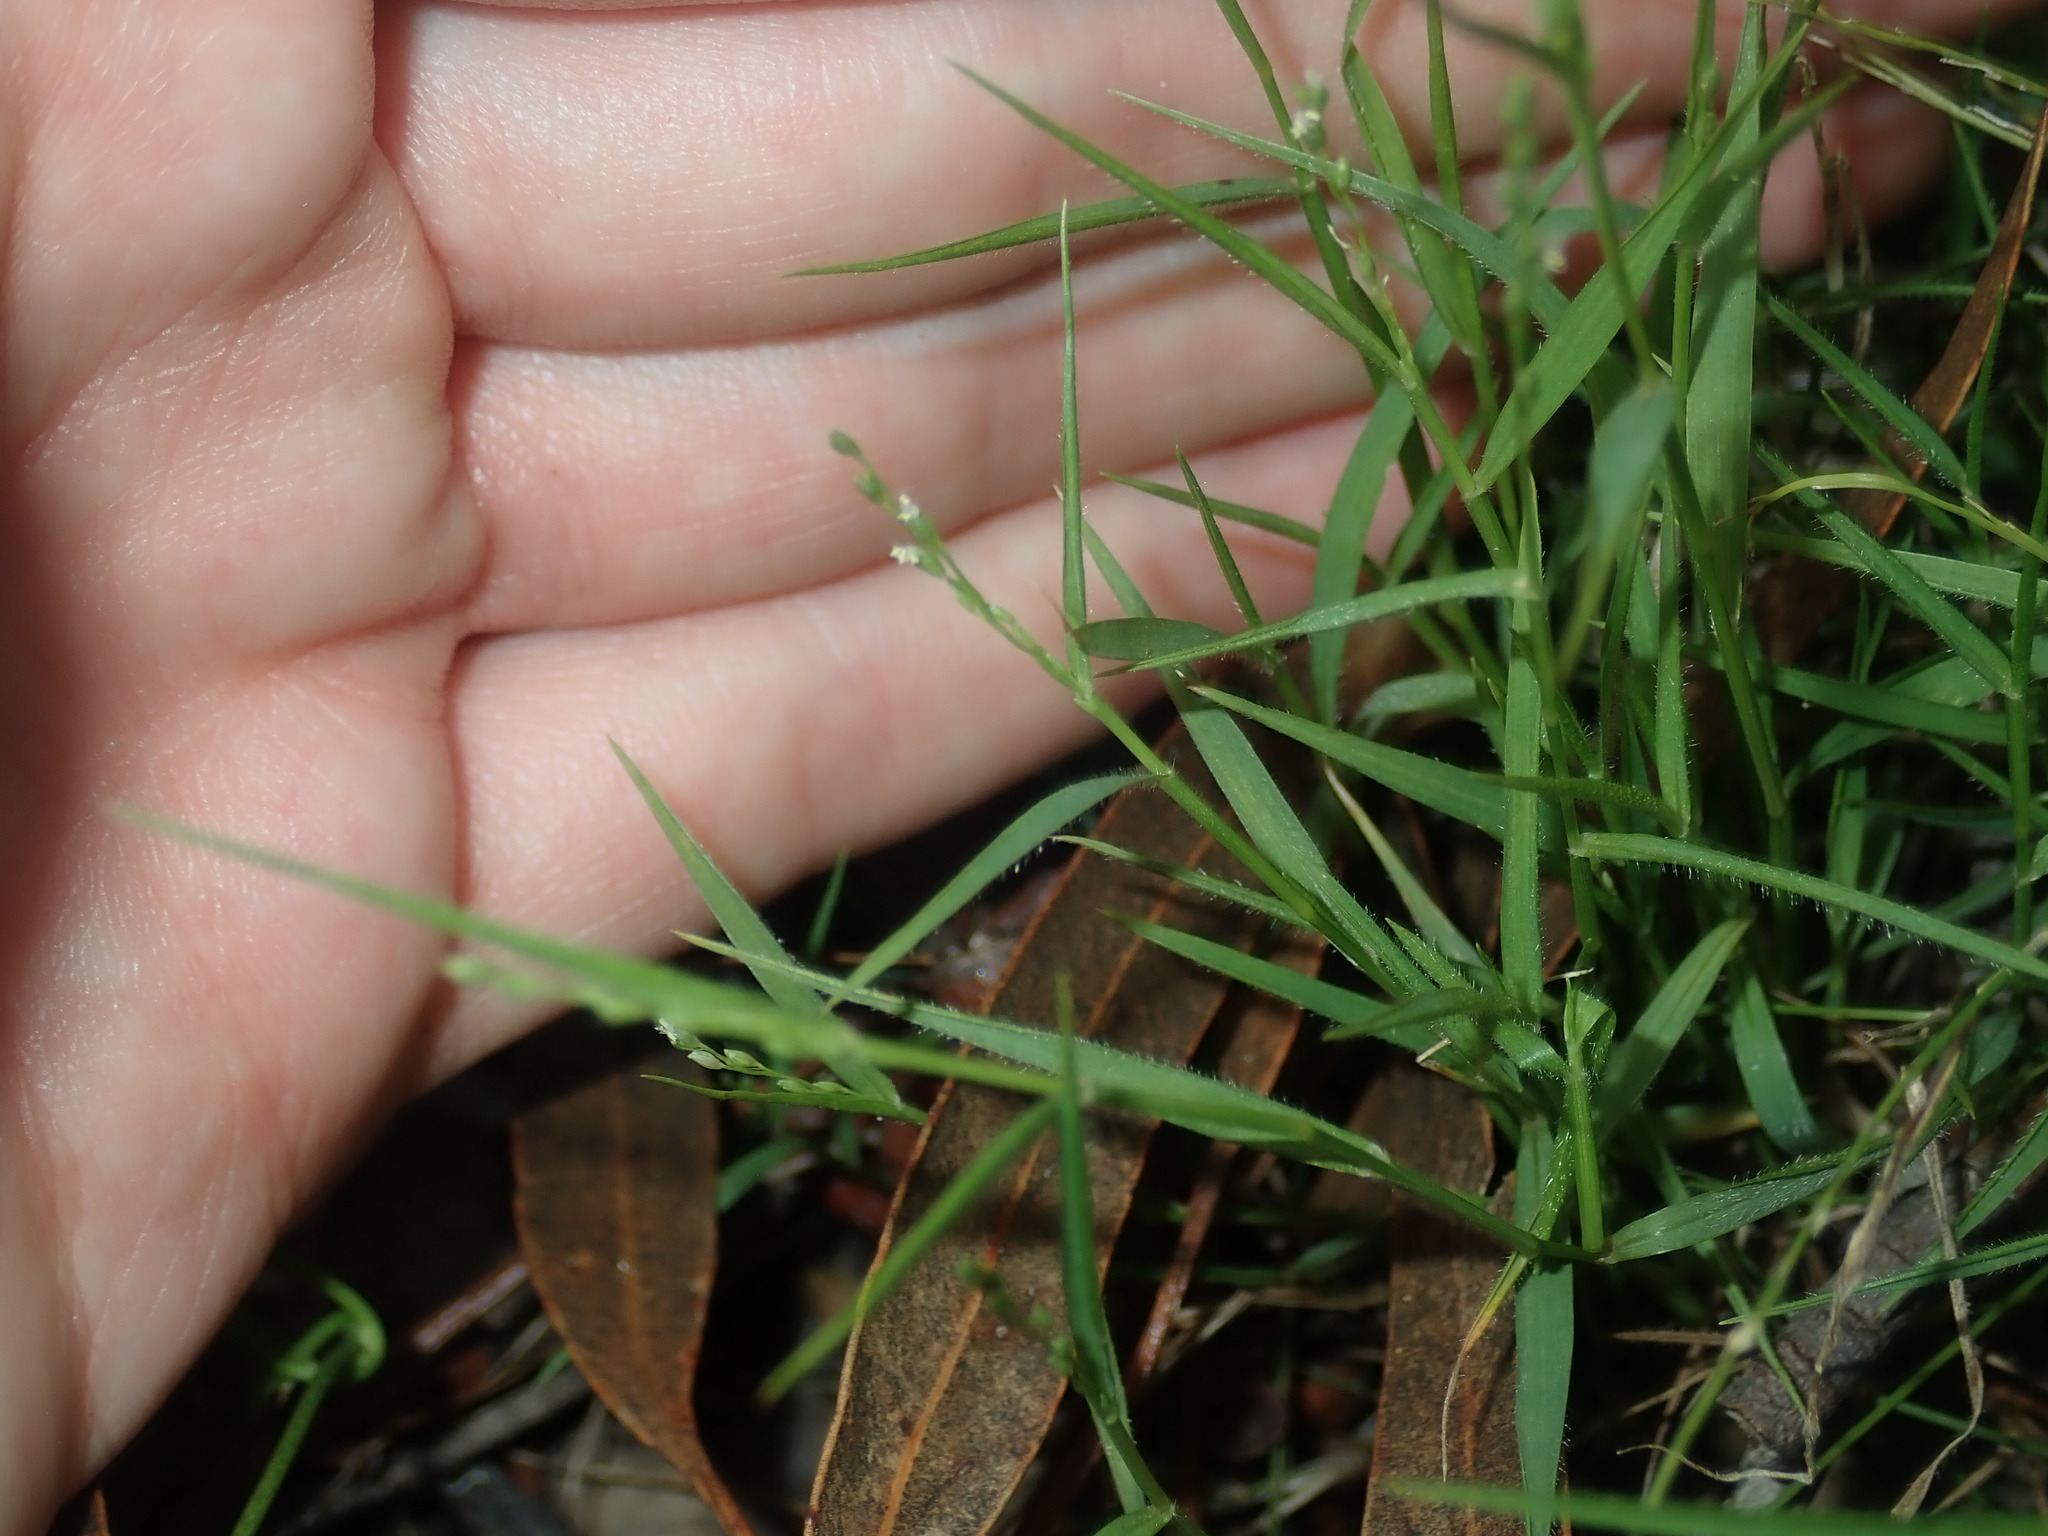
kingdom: Plantae
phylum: Tracheophyta
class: Liliopsida
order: Poales
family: Poaceae
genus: Setaria
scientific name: Setaria criniformis
